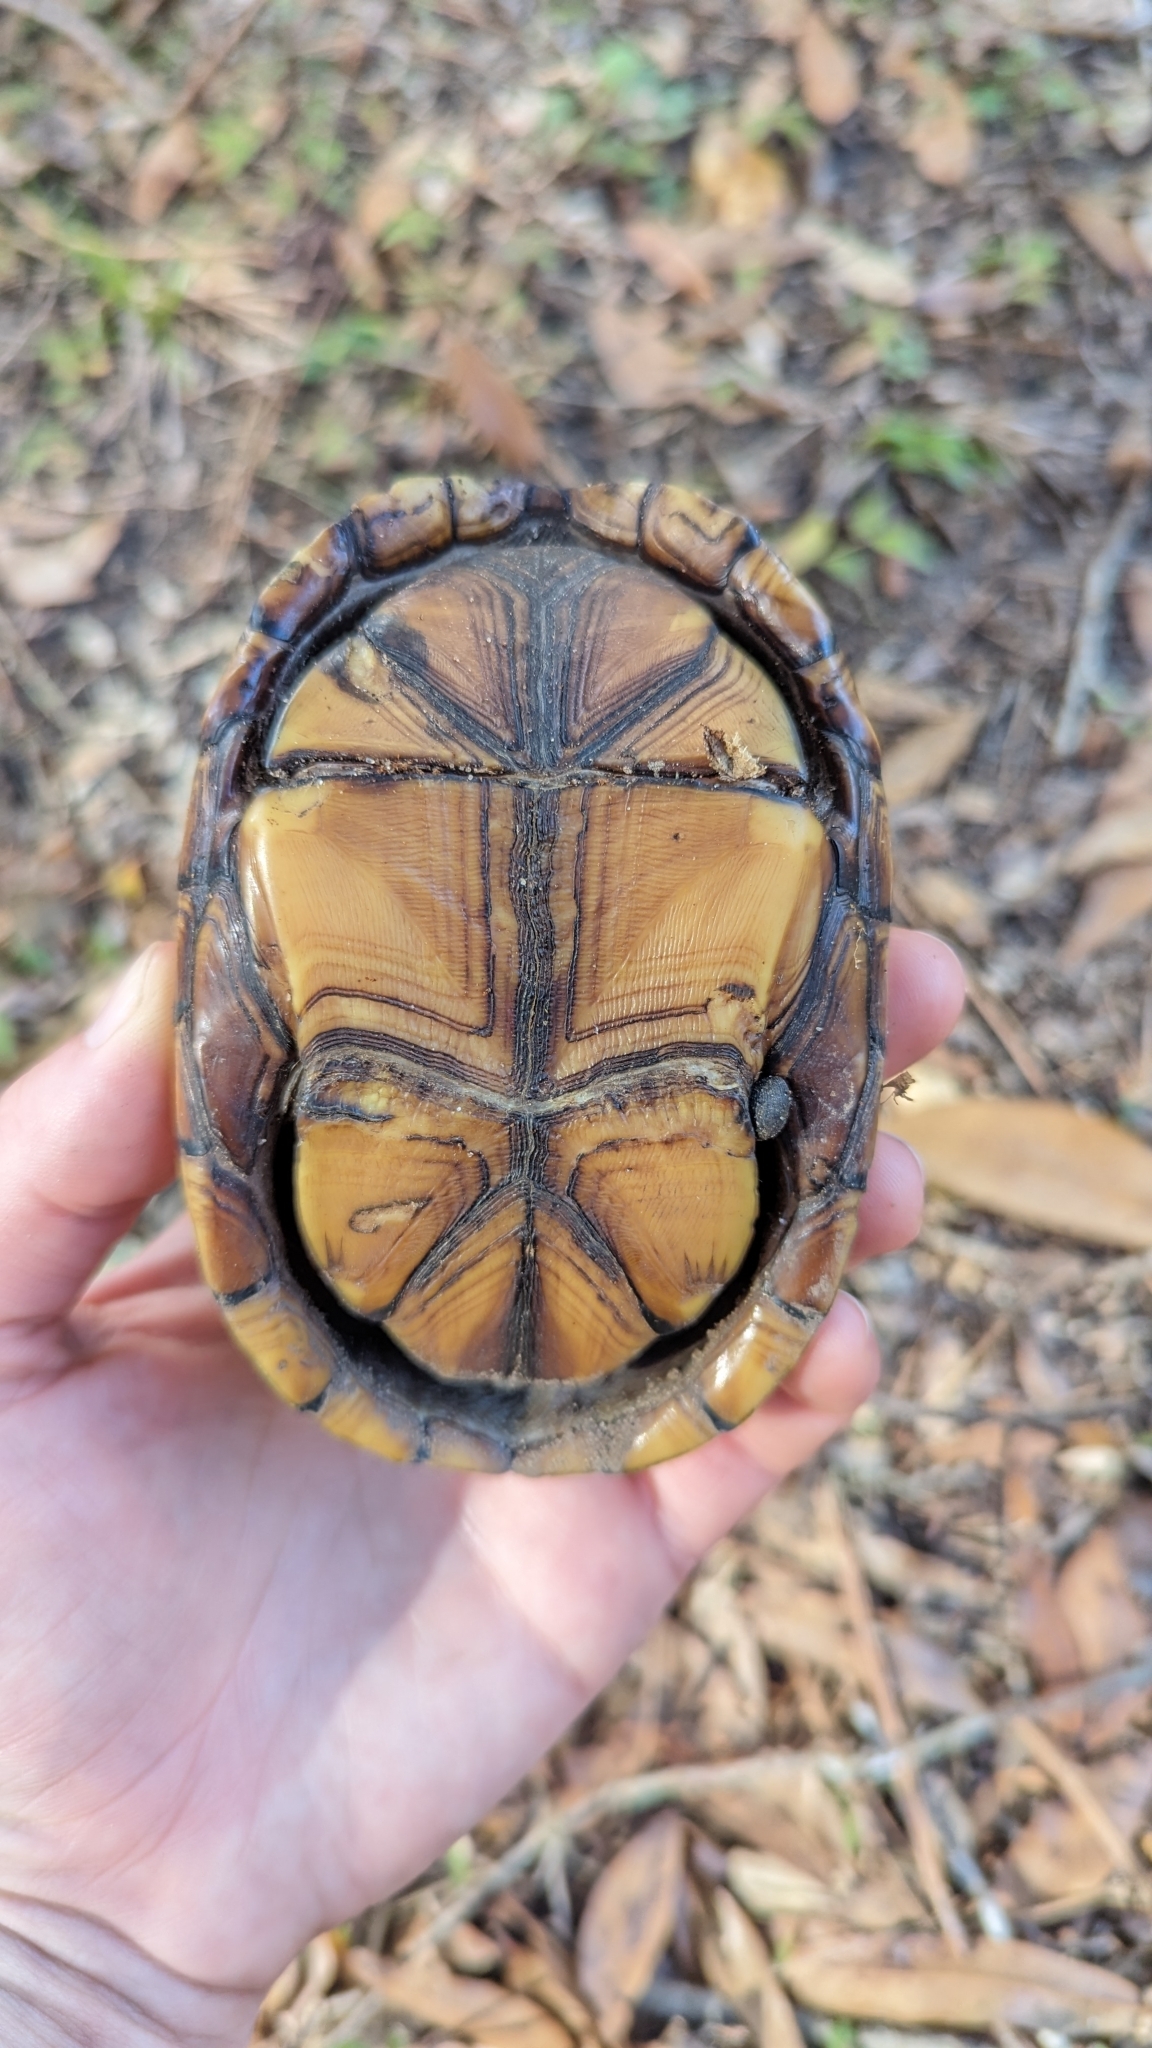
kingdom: Animalia
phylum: Chordata
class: Testudines
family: Kinosternidae
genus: Kinosternon
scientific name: Kinosternon baurii
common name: Striped mud turtle
